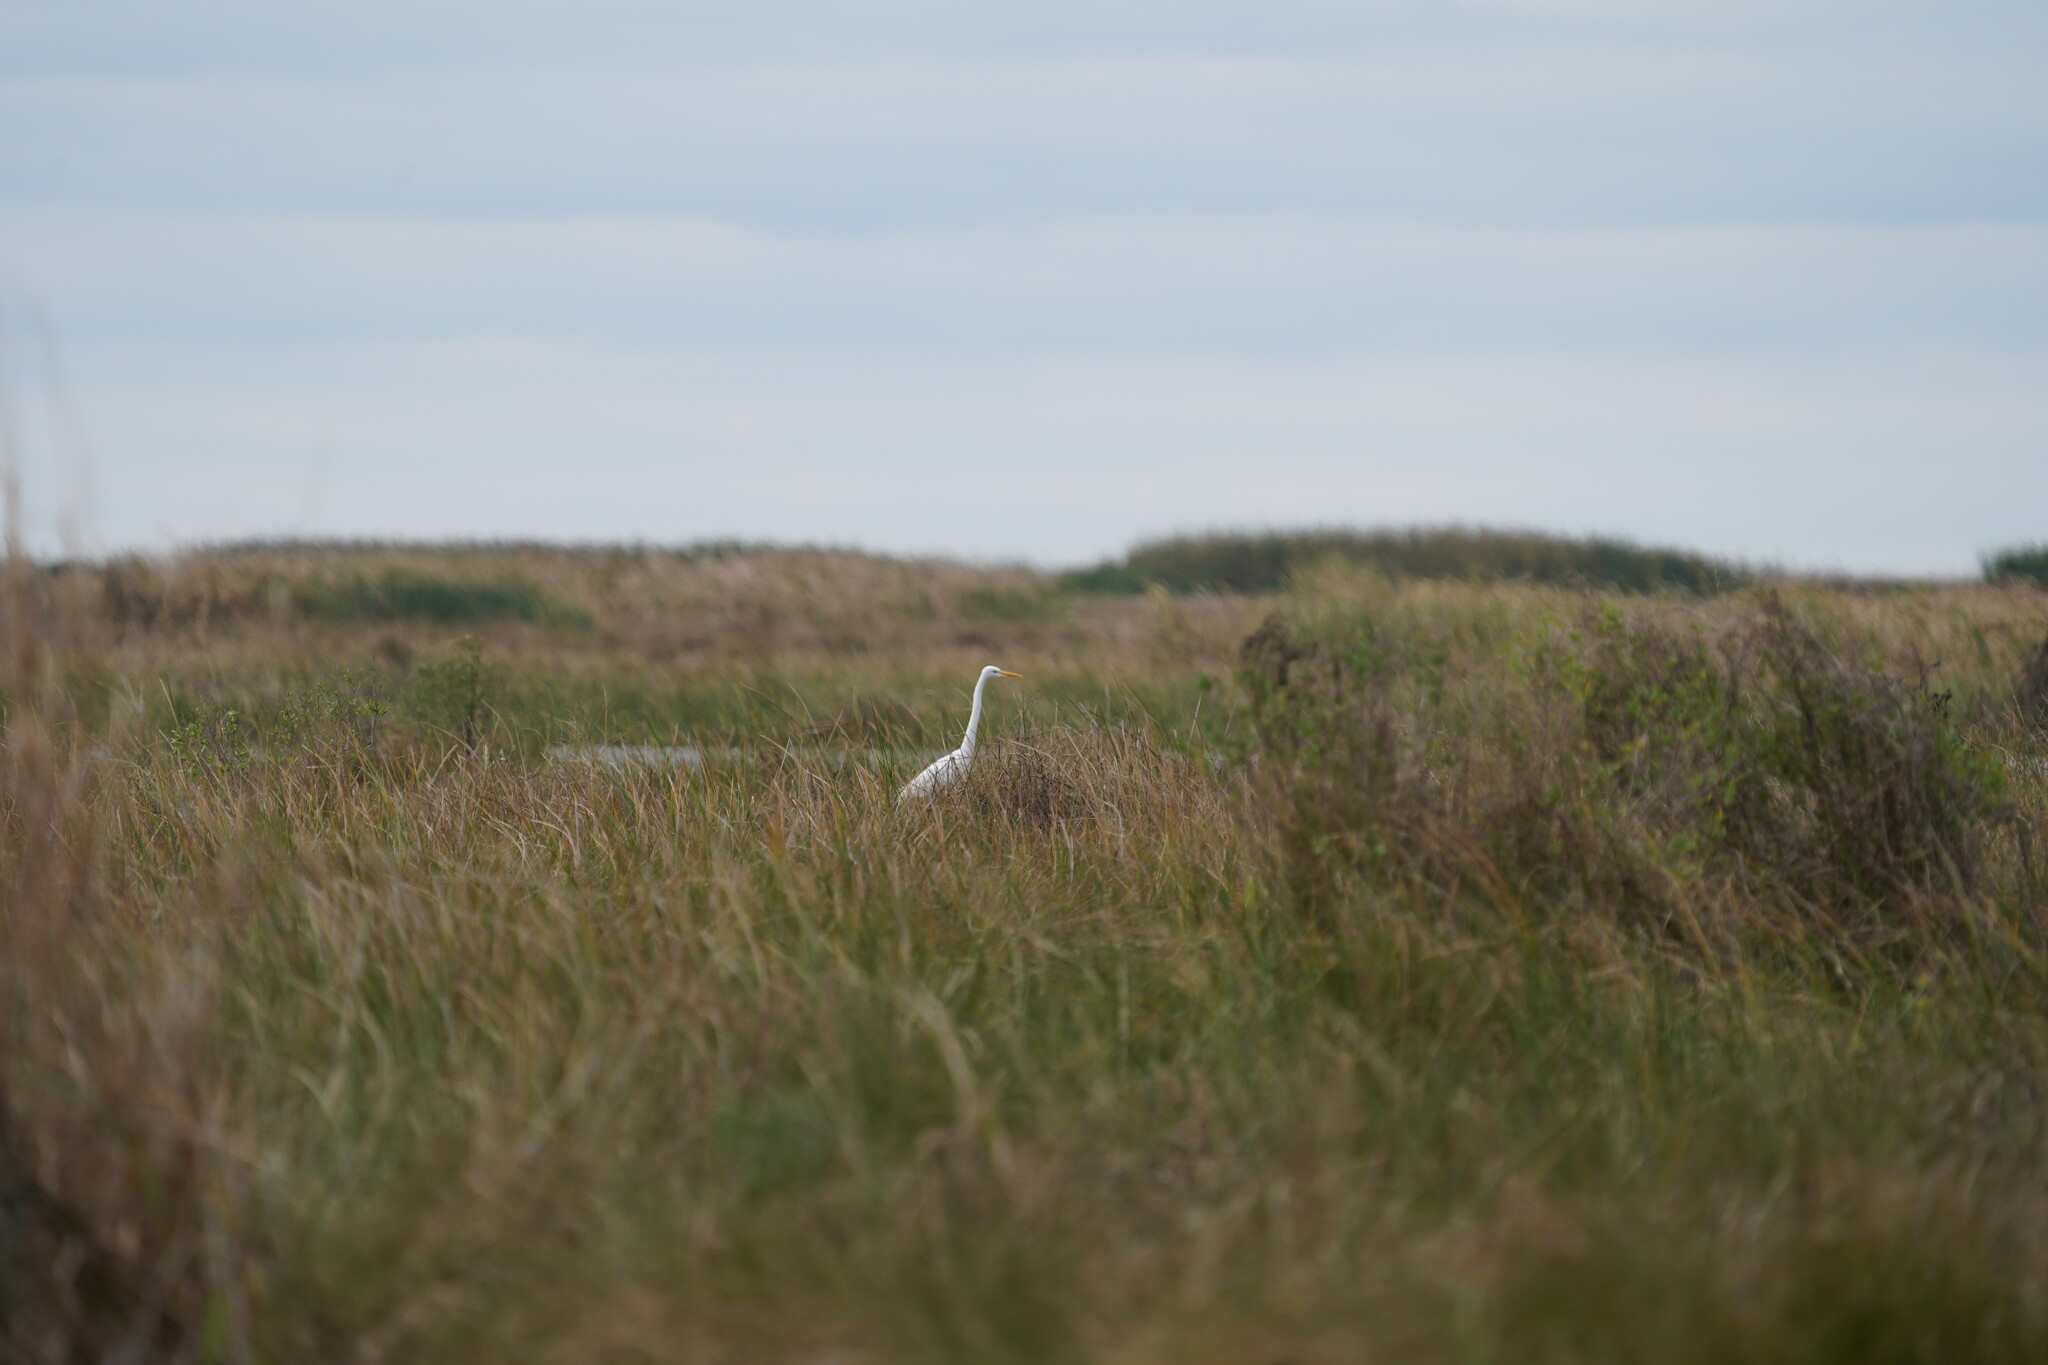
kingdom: Animalia
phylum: Chordata
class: Aves
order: Pelecaniformes
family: Ardeidae
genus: Ardea
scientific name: Ardea alba
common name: Great egret
